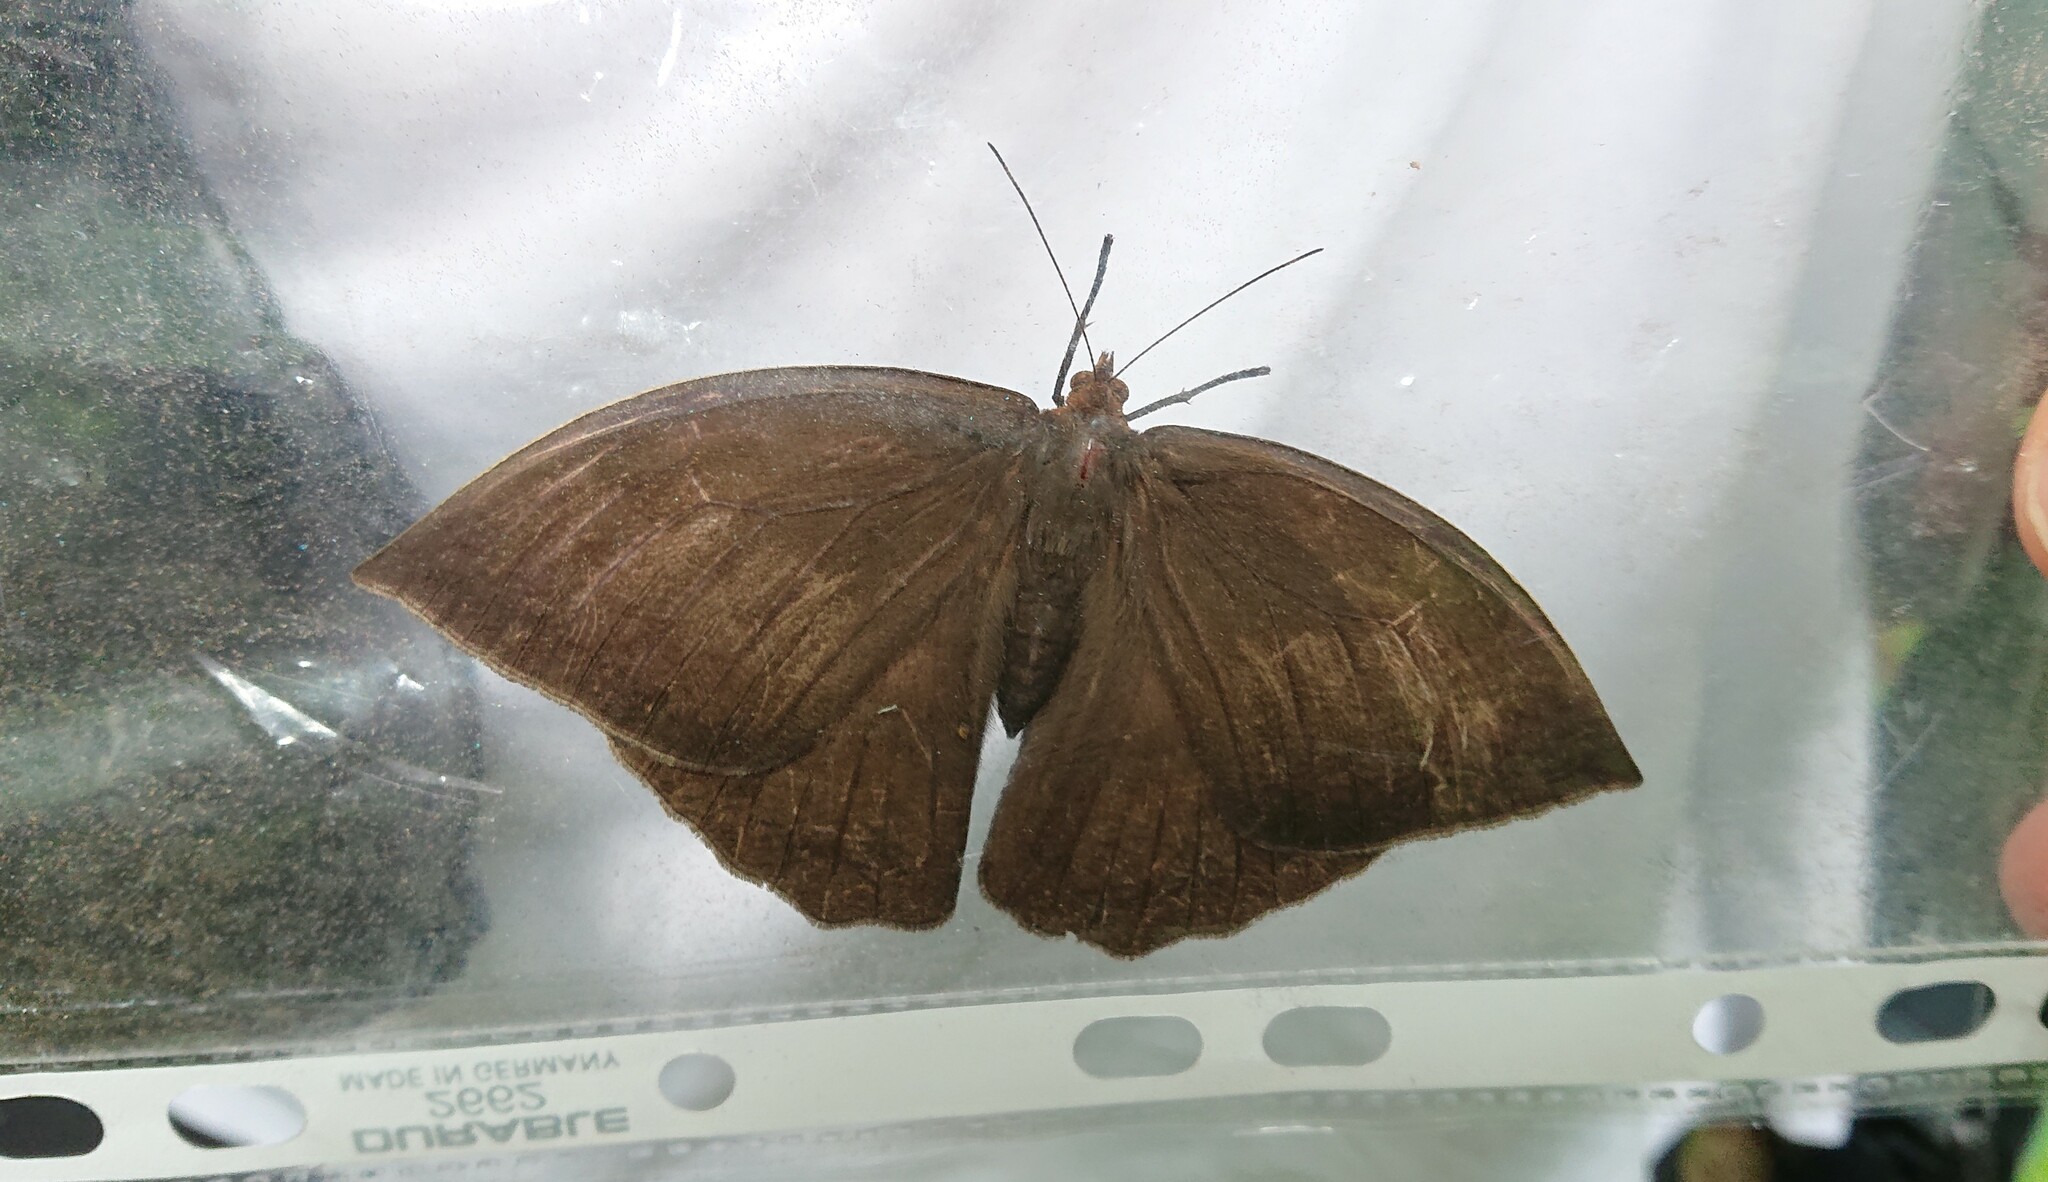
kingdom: Animalia
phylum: Arthropoda
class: Insecta
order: Lepidoptera
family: Nymphalidae
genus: Taygetis
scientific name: Taygetis mermeria
